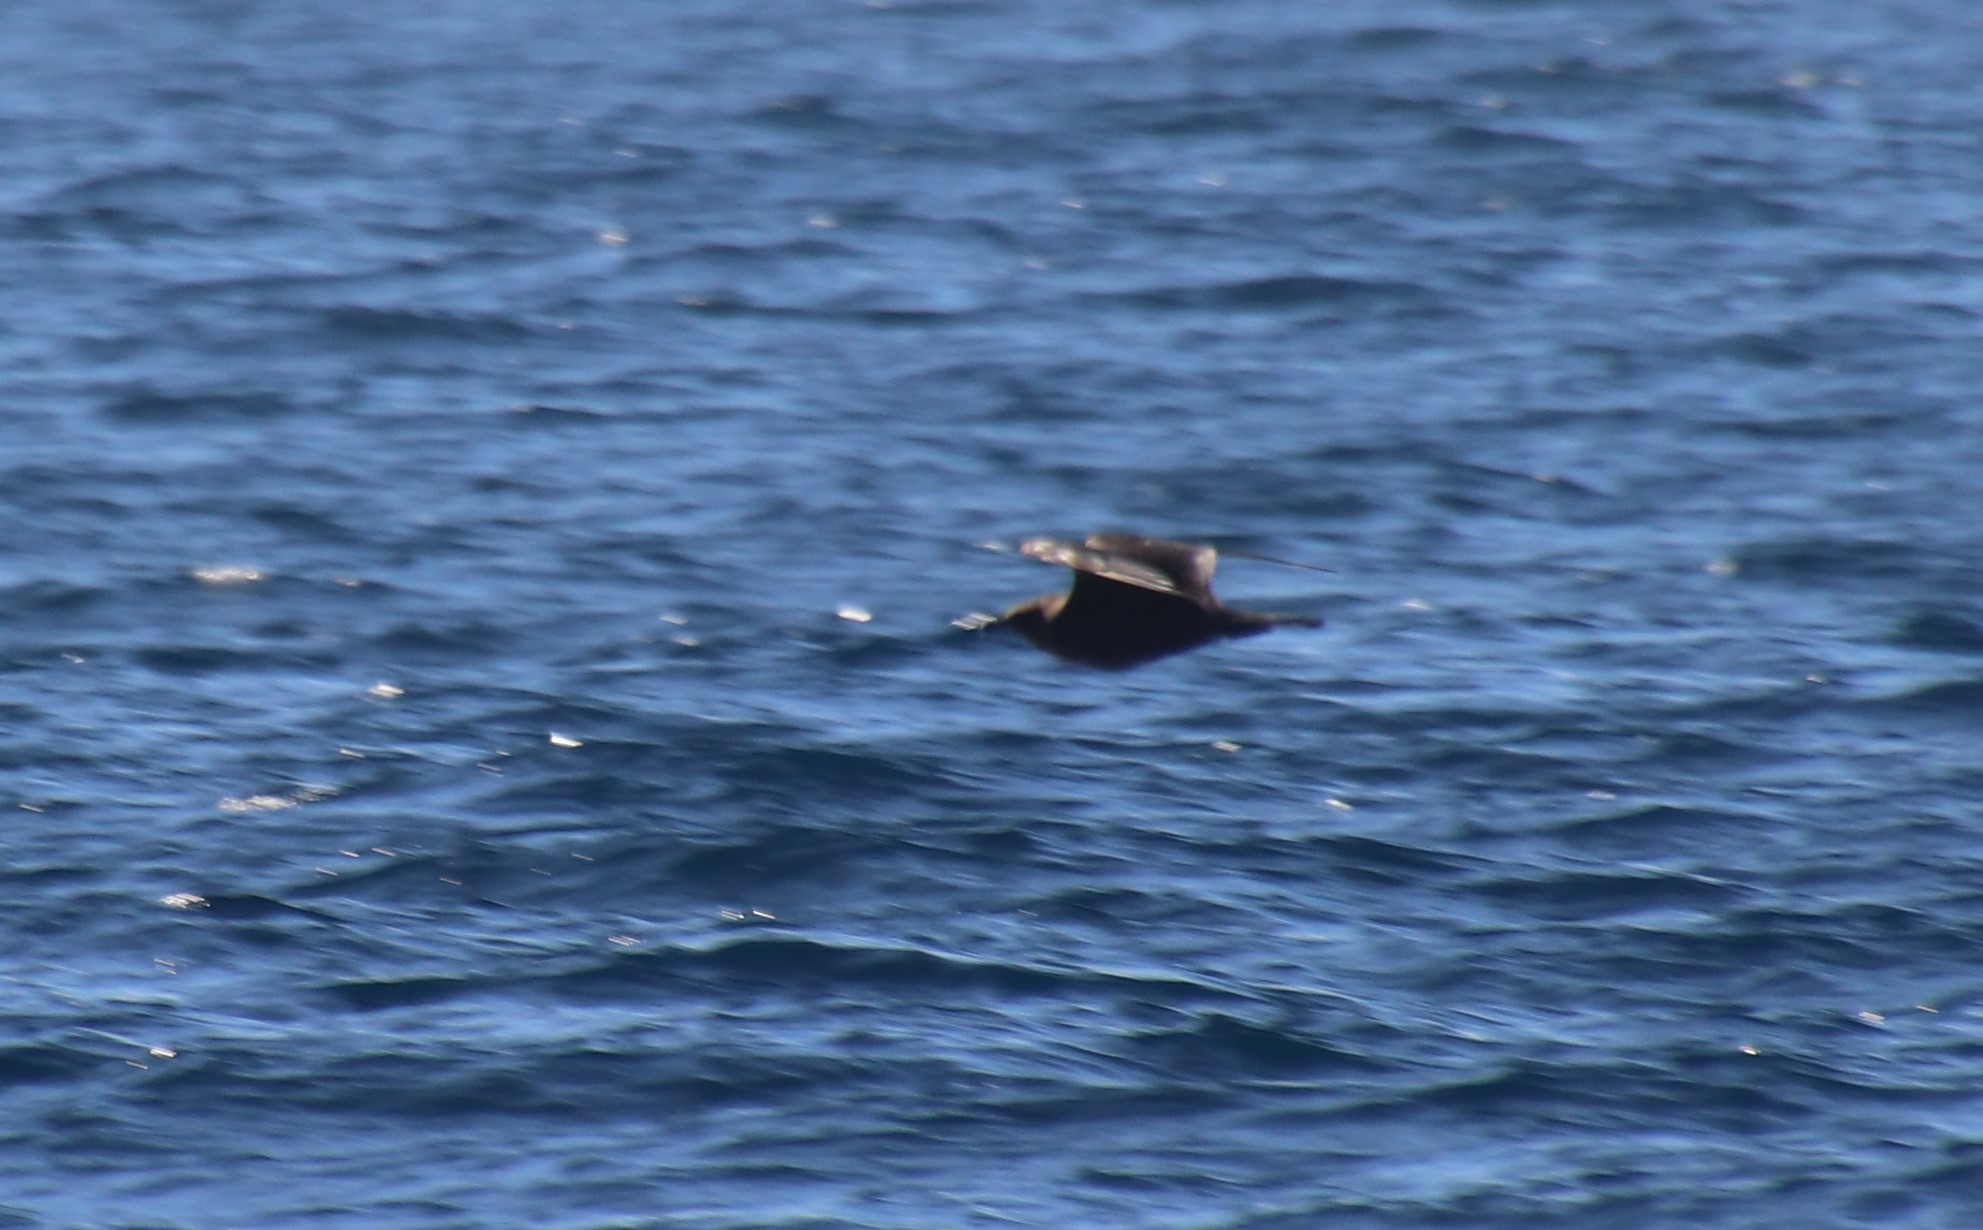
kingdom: Animalia
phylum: Chordata
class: Aves
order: Charadriiformes
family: Stercorariidae
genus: Stercorarius
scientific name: Stercorarius parasiticus
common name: Parasitic jaeger
